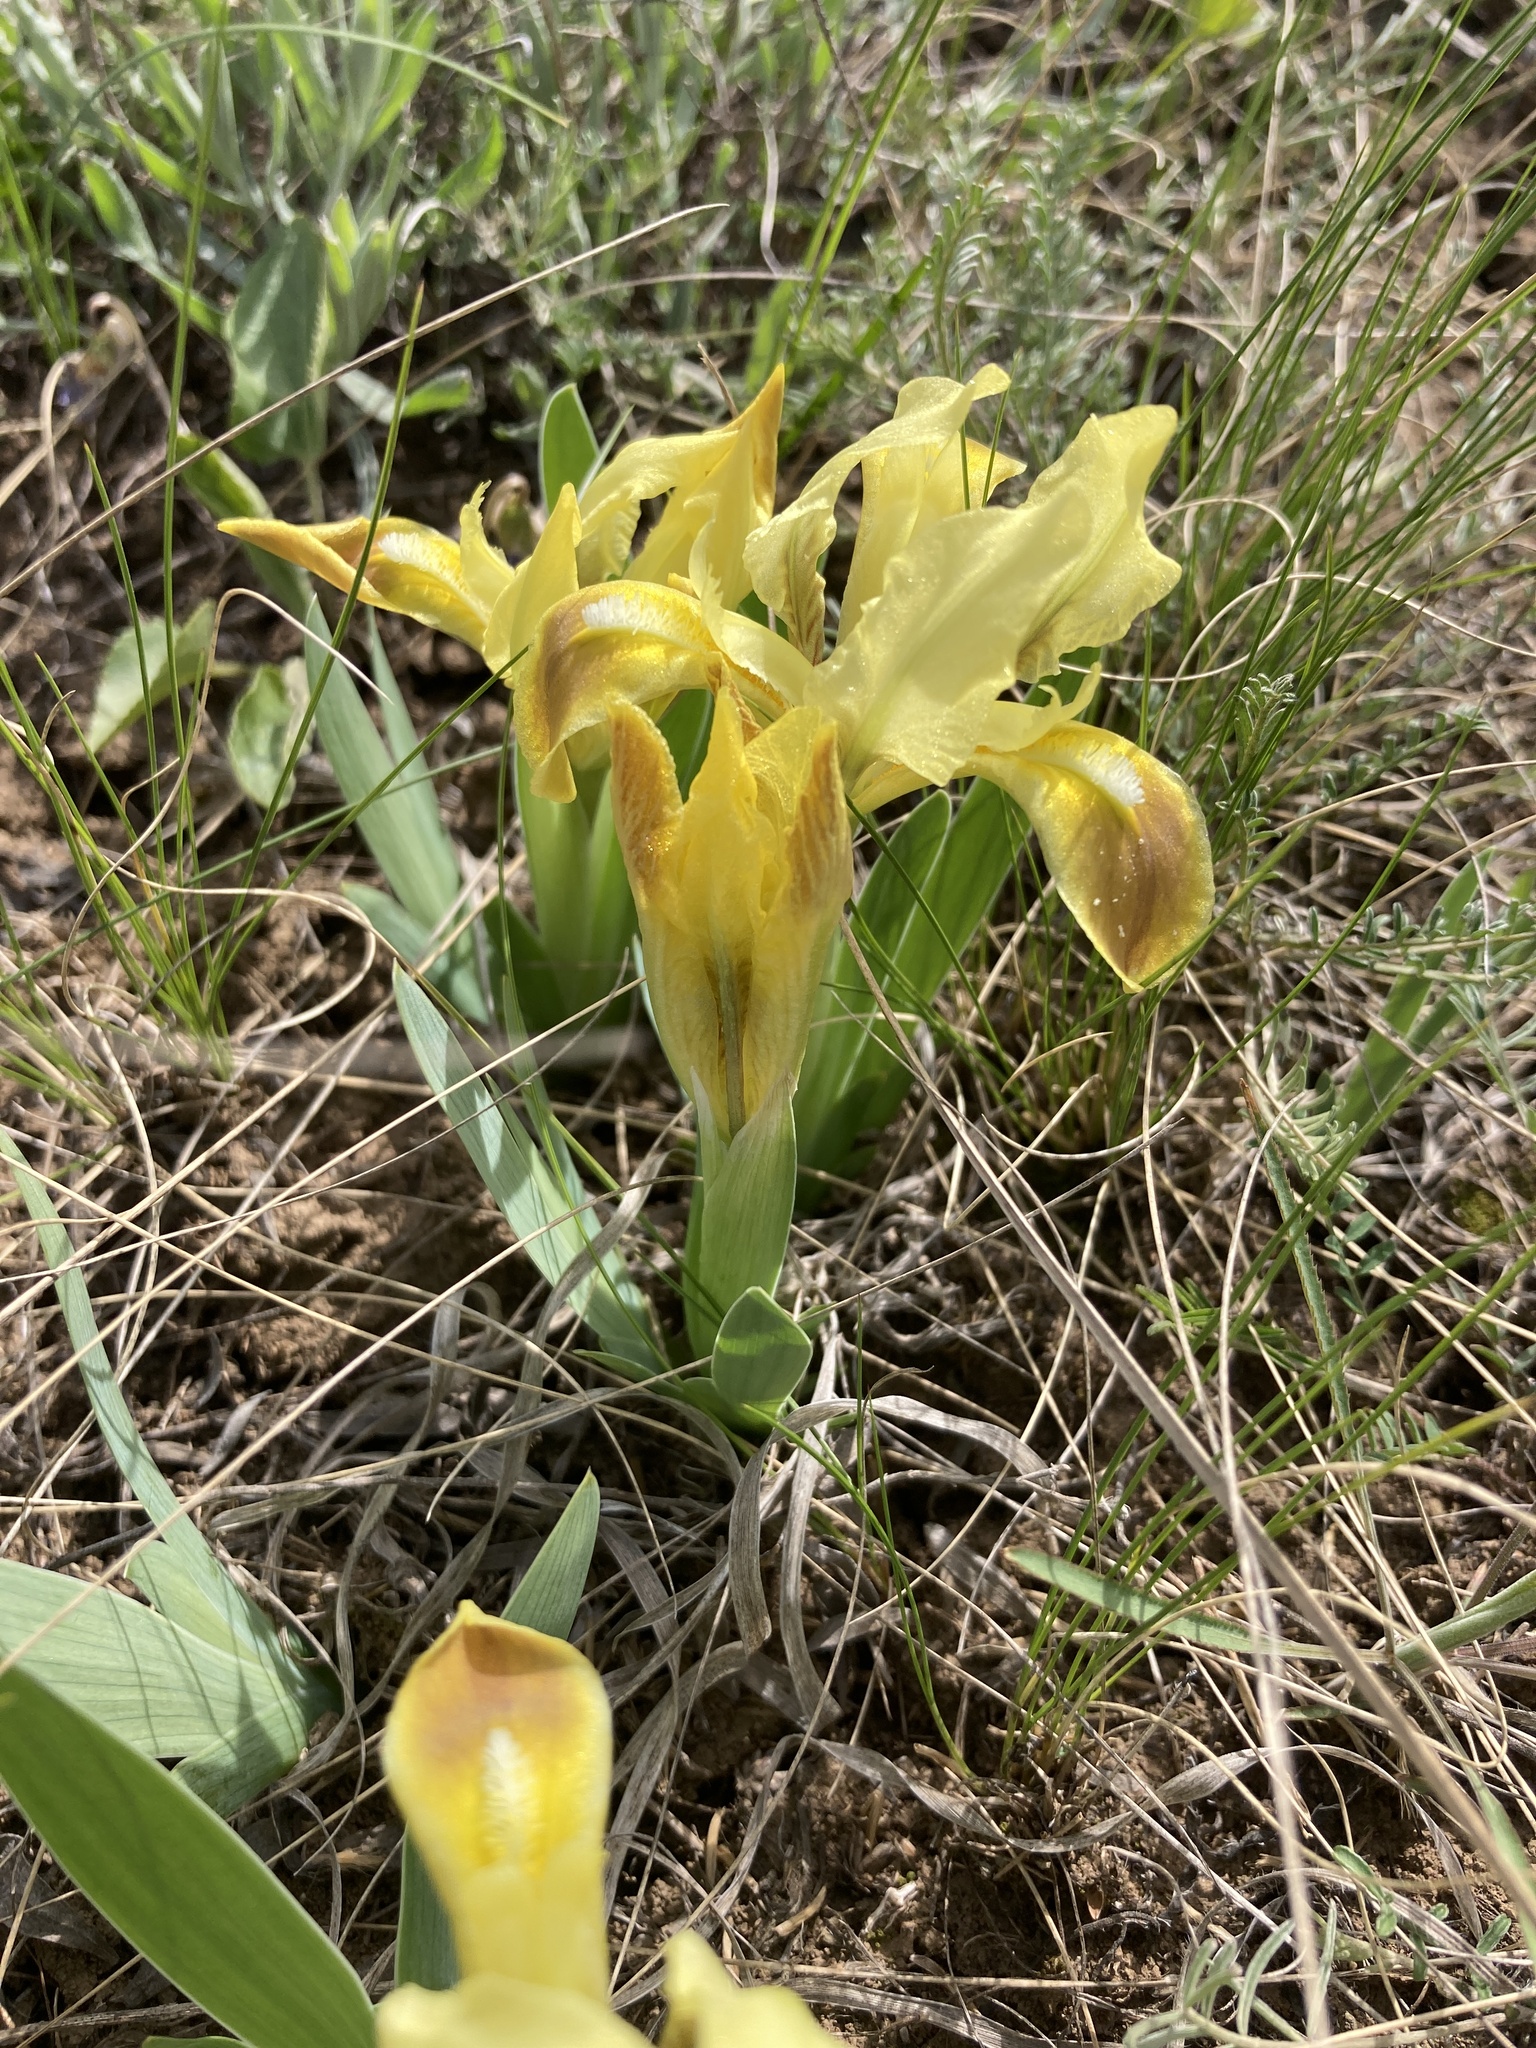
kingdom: Plantae
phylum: Tracheophyta
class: Liliopsida
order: Asparagales
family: Iridaceae
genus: Iris
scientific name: Iris pumila
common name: Dwarf iris
